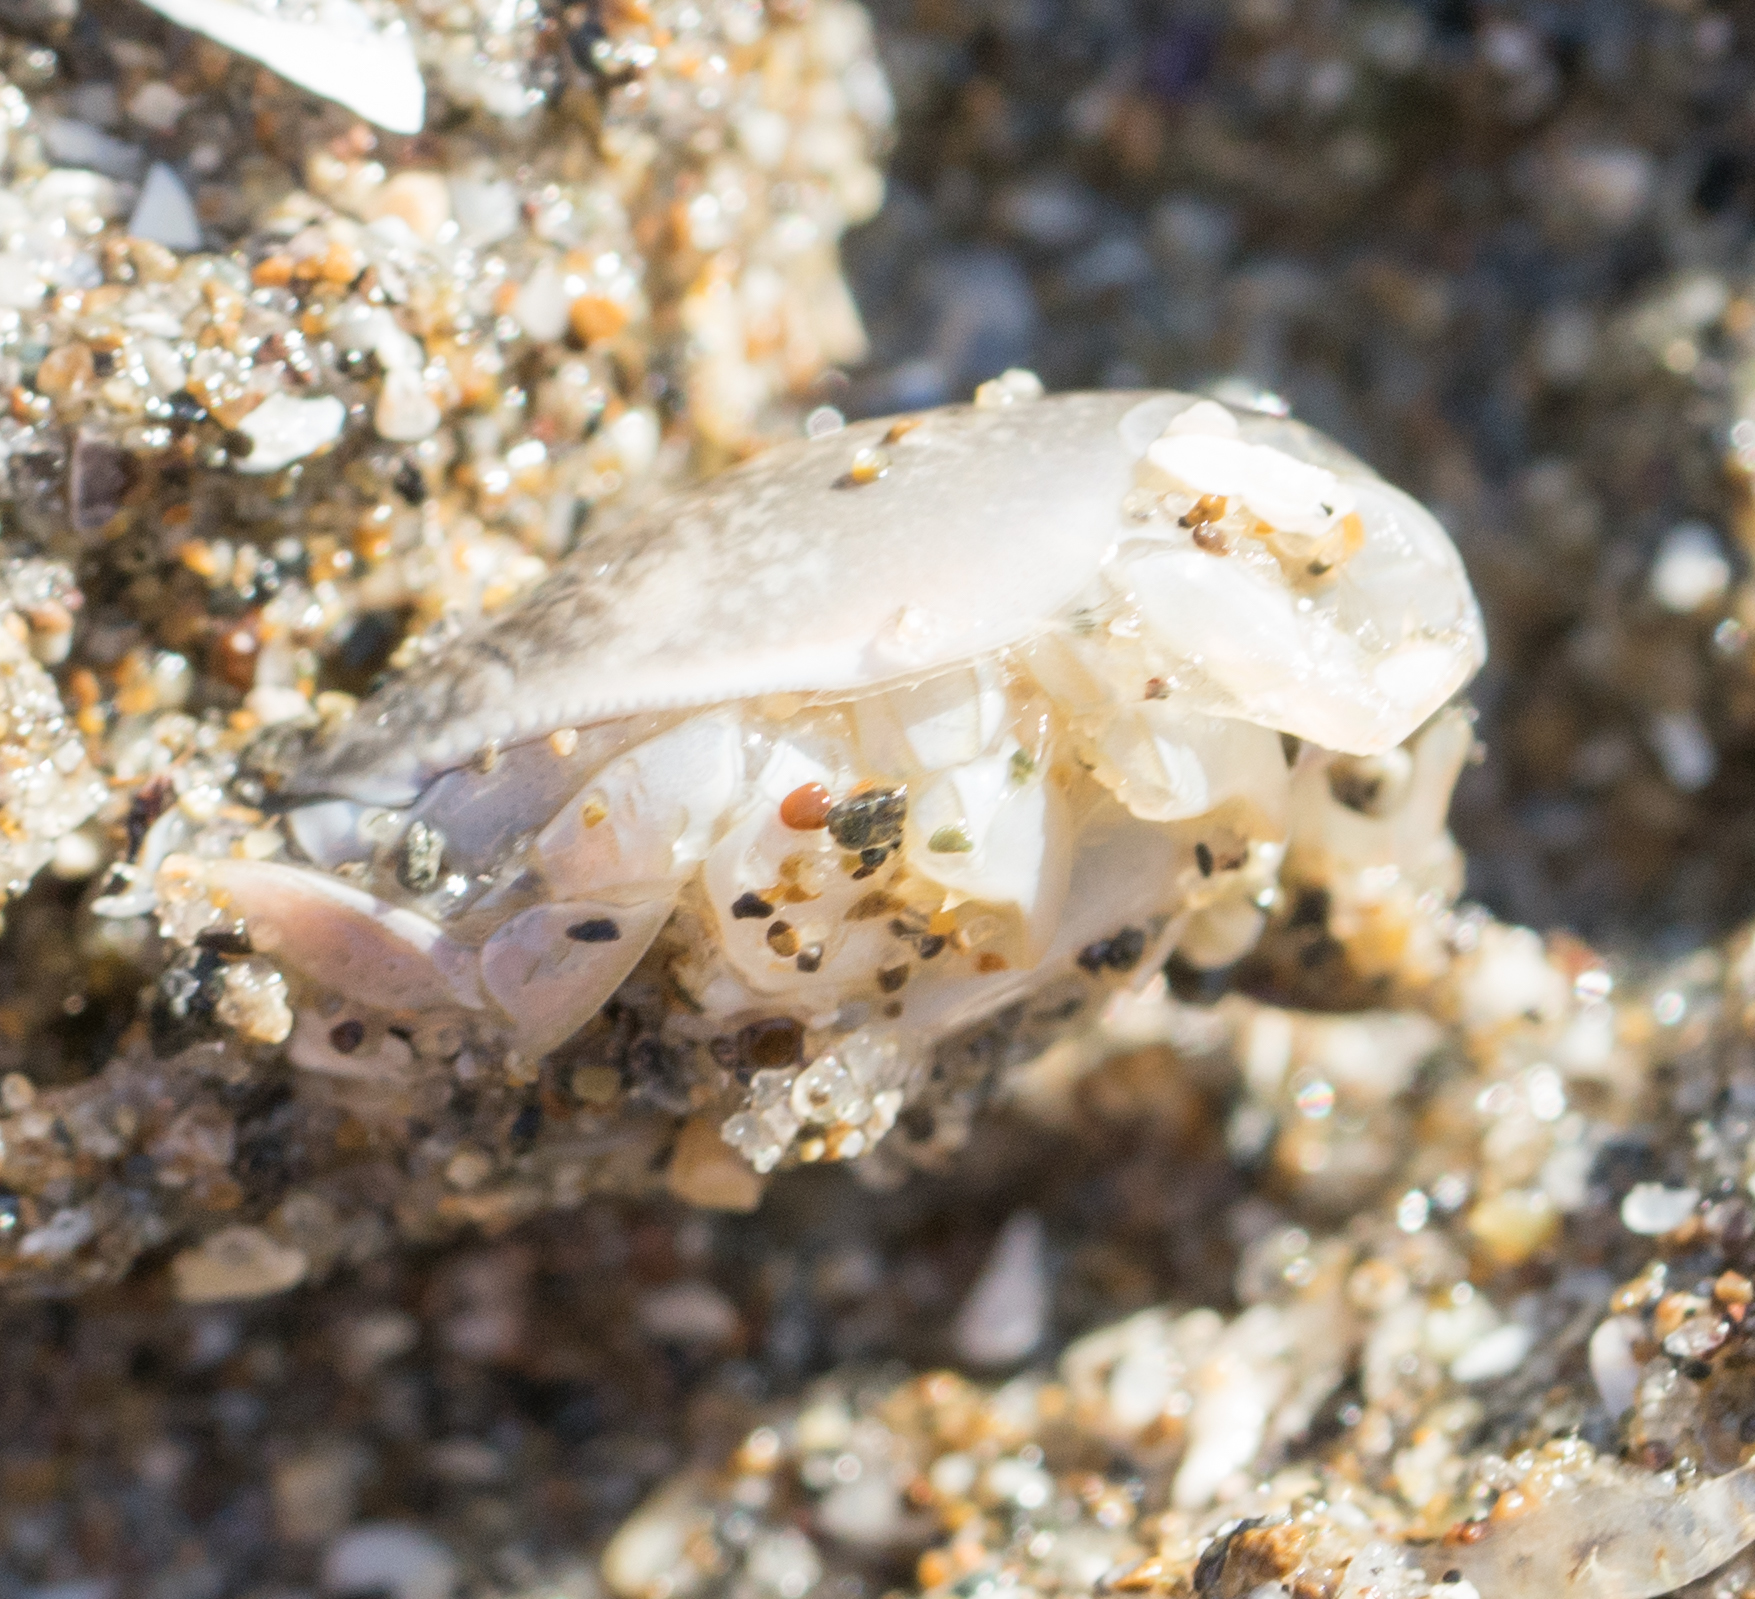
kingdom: Animalia
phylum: Arthropoda
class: Malacostraca
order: Decapoda
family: Hippidae
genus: Emerita
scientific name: Emerita analoga
